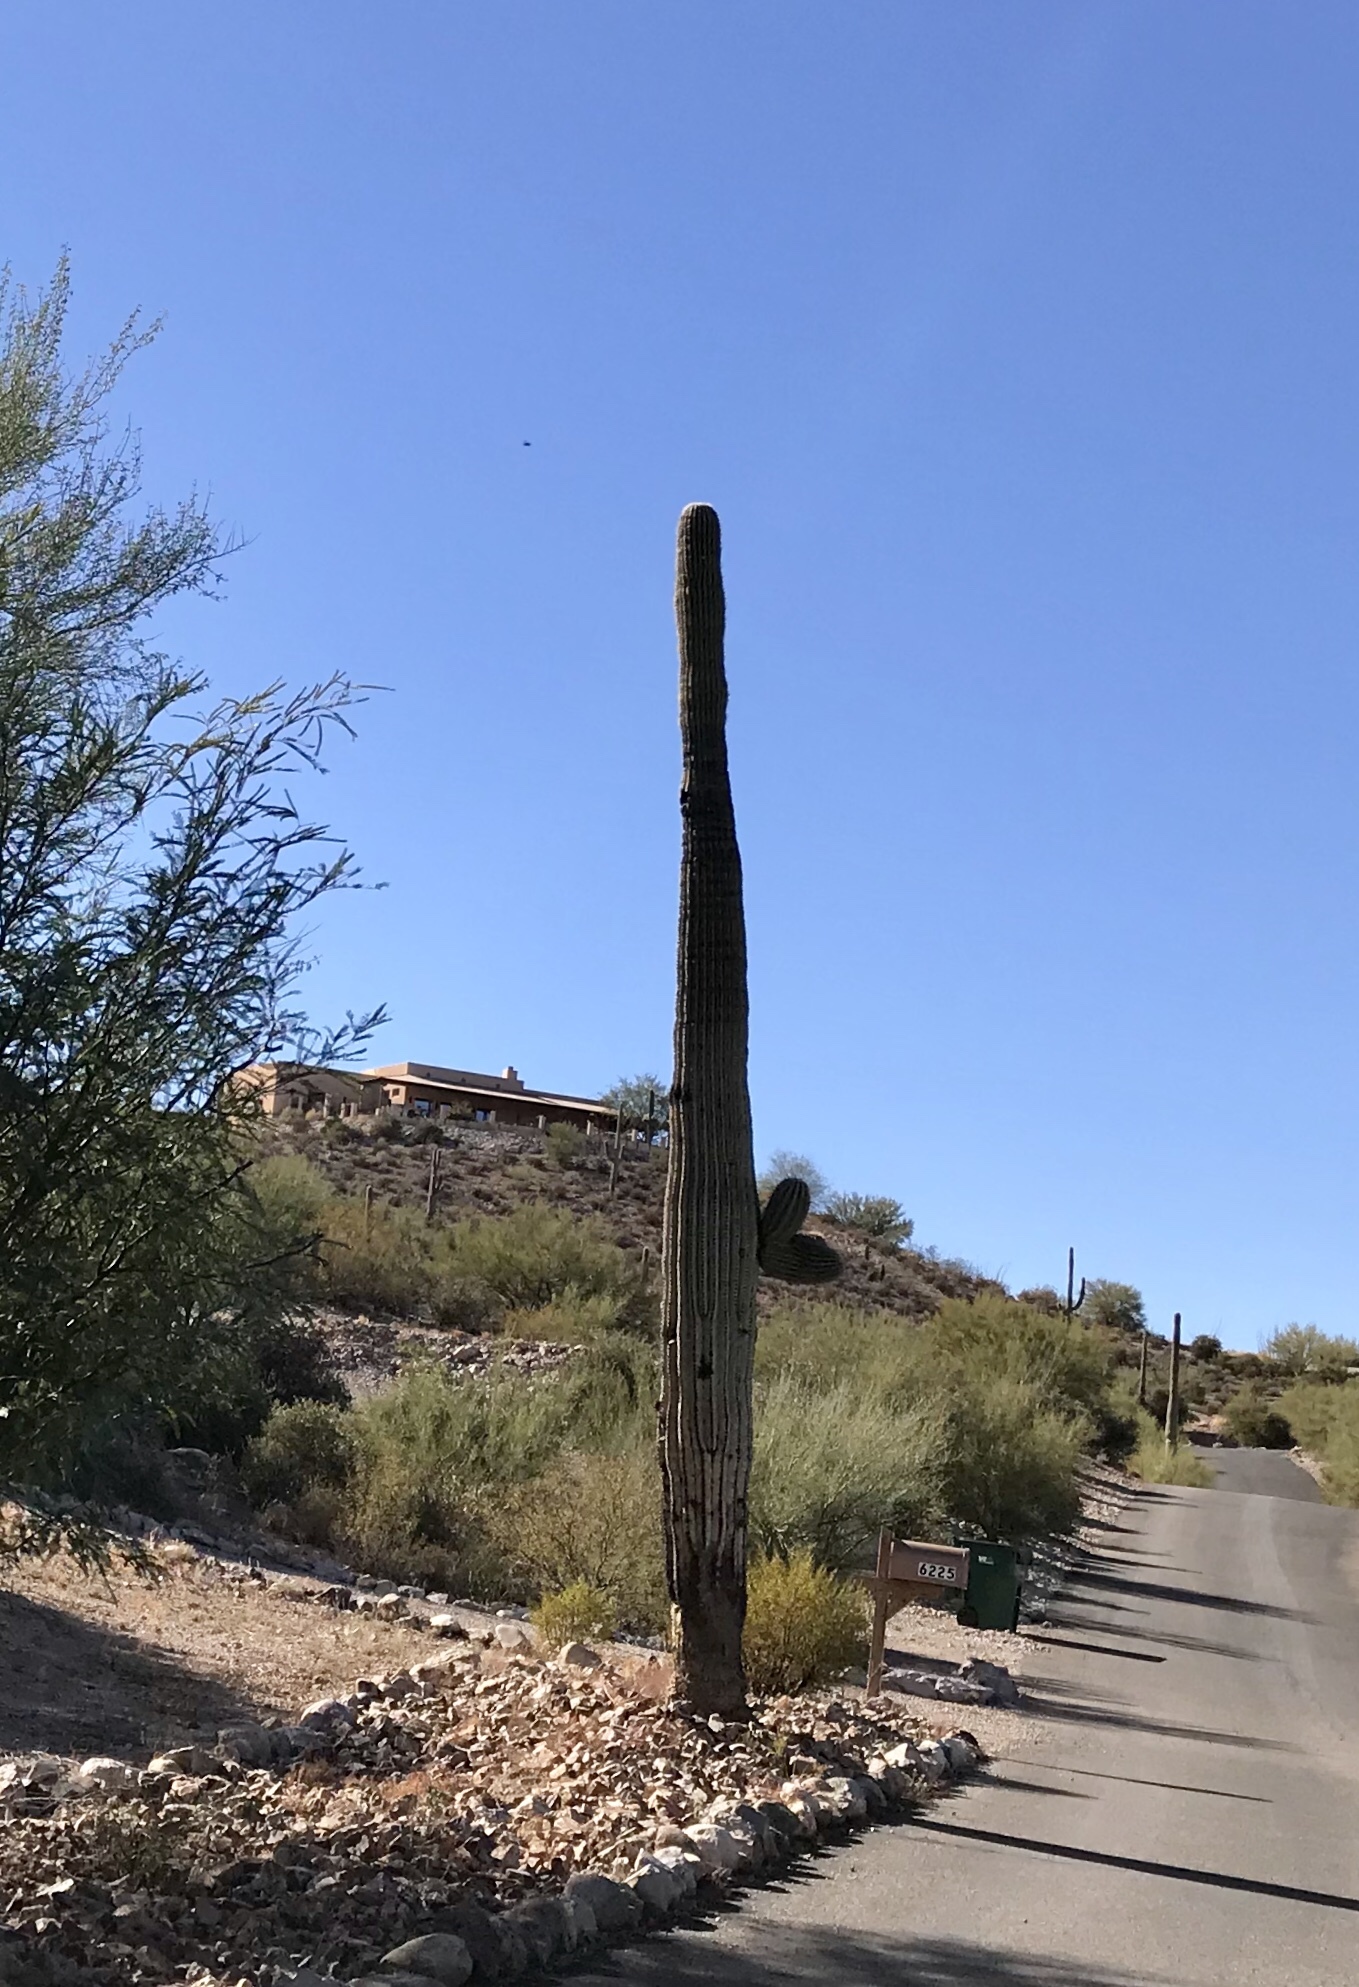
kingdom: Plantae
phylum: Tracheophyta
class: Magnoliopsida
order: Caryophyllales
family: Cactaceae
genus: Carnegiea
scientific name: Carnegiea gigantea
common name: Saguaro
